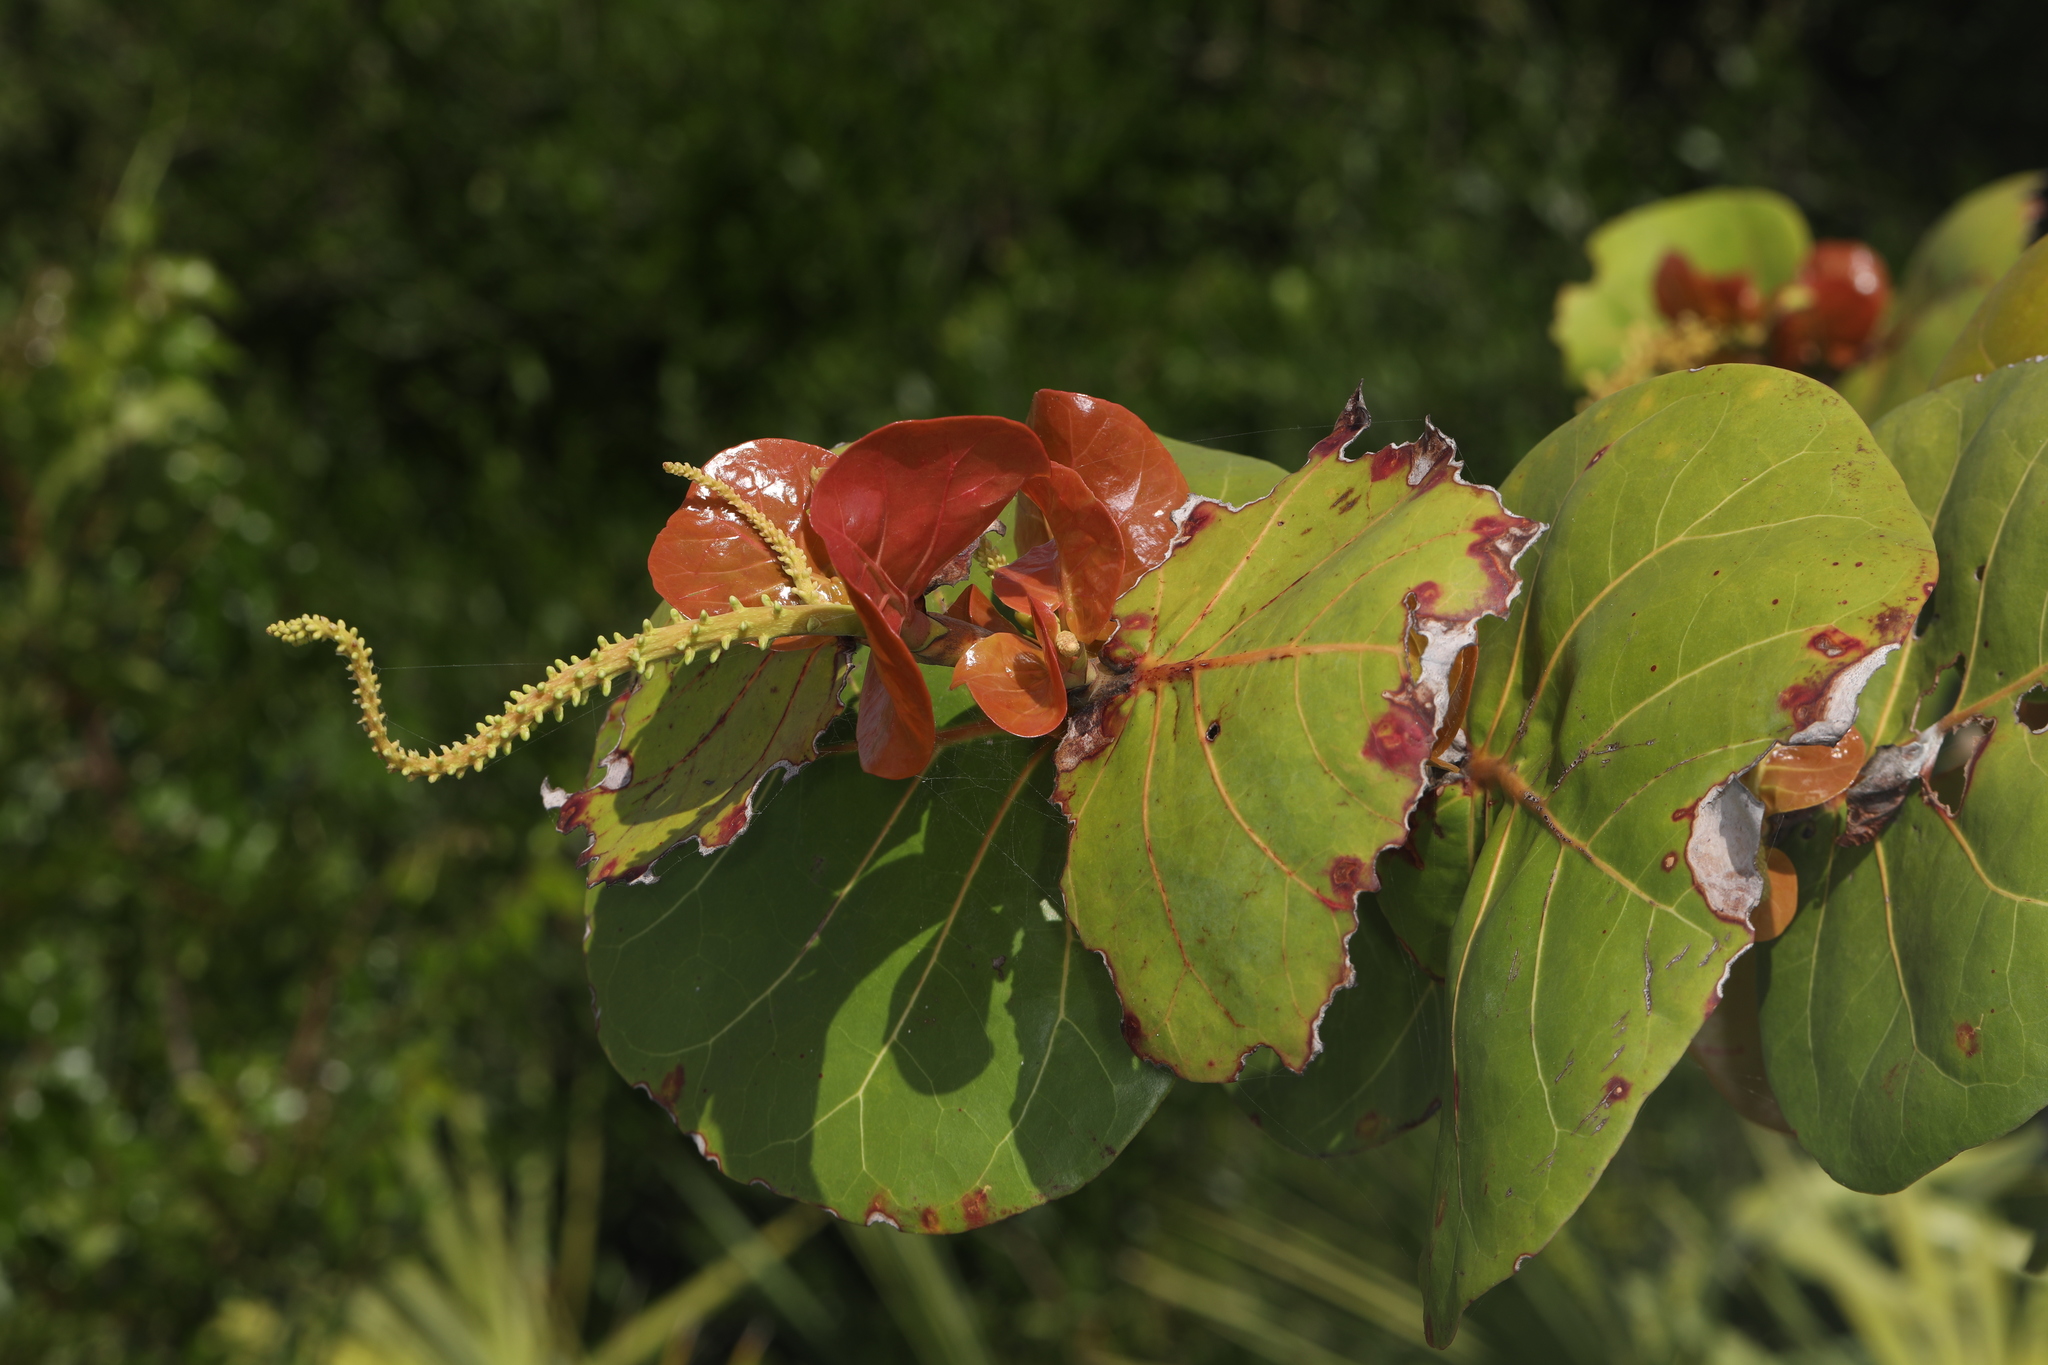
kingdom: Plantae
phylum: Tracheophyta
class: Magnoliopsida
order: Caryophyllales
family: Polygonaceae
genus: Coccoloba
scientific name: Coccoloba uvifera
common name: Seagrape
